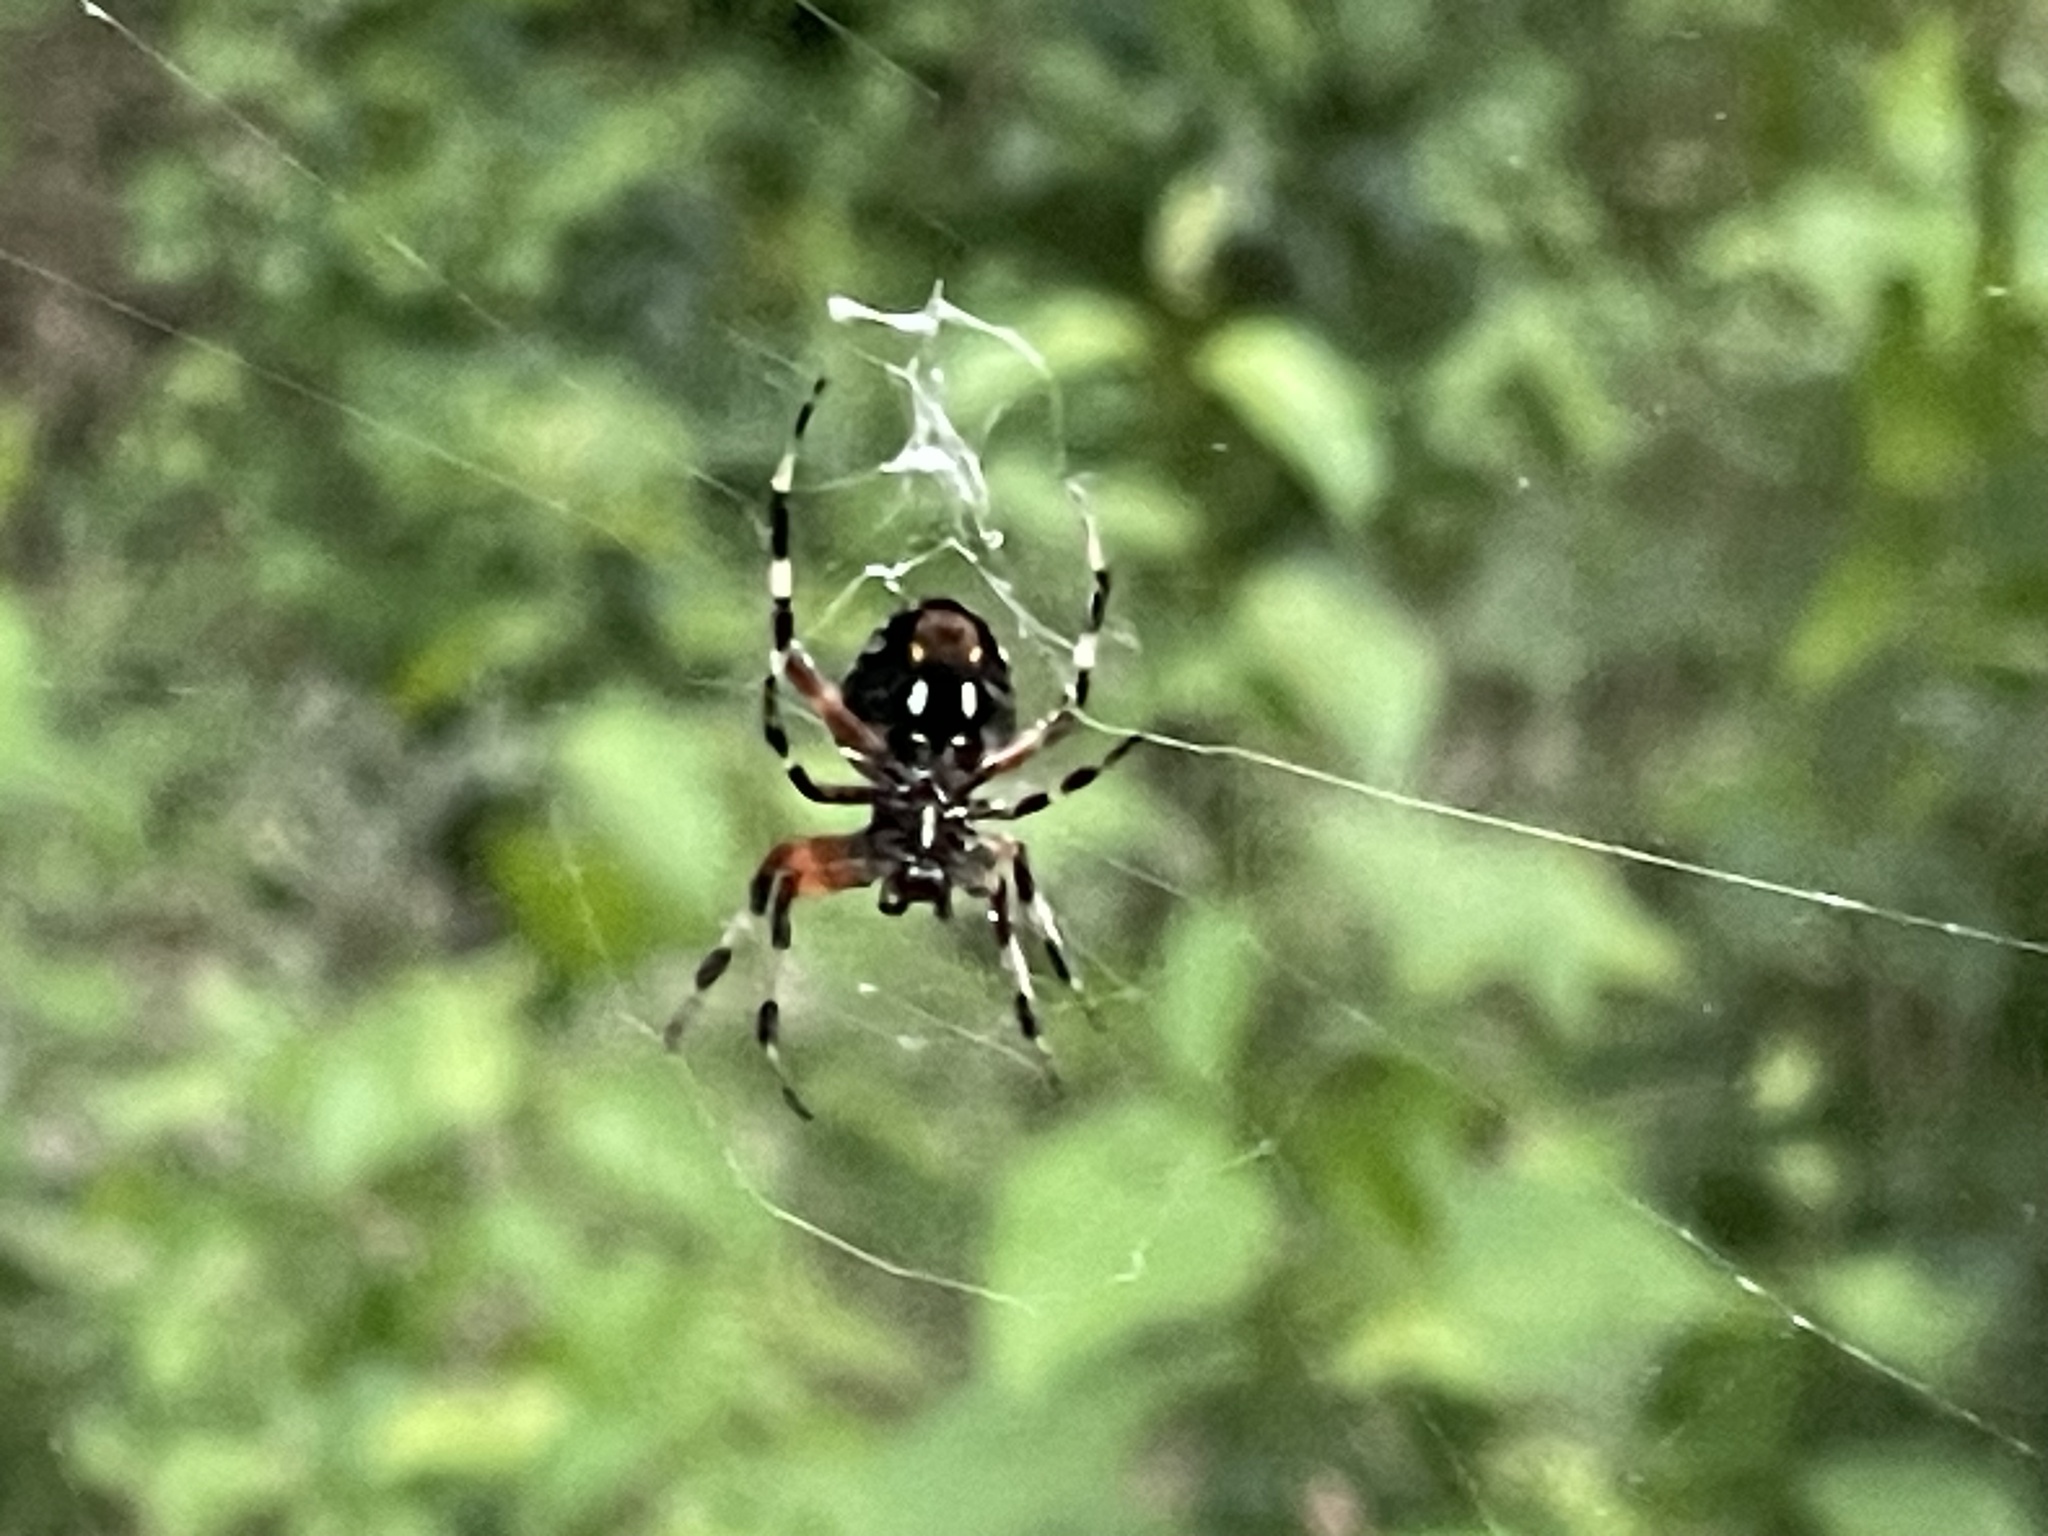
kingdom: Animalia
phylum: Arthropoda
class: Arachnida
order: Araneae
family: Araneidae
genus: Neoscona
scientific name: Neoscona domiciliorum
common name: Red-femured spotted orbweaver
